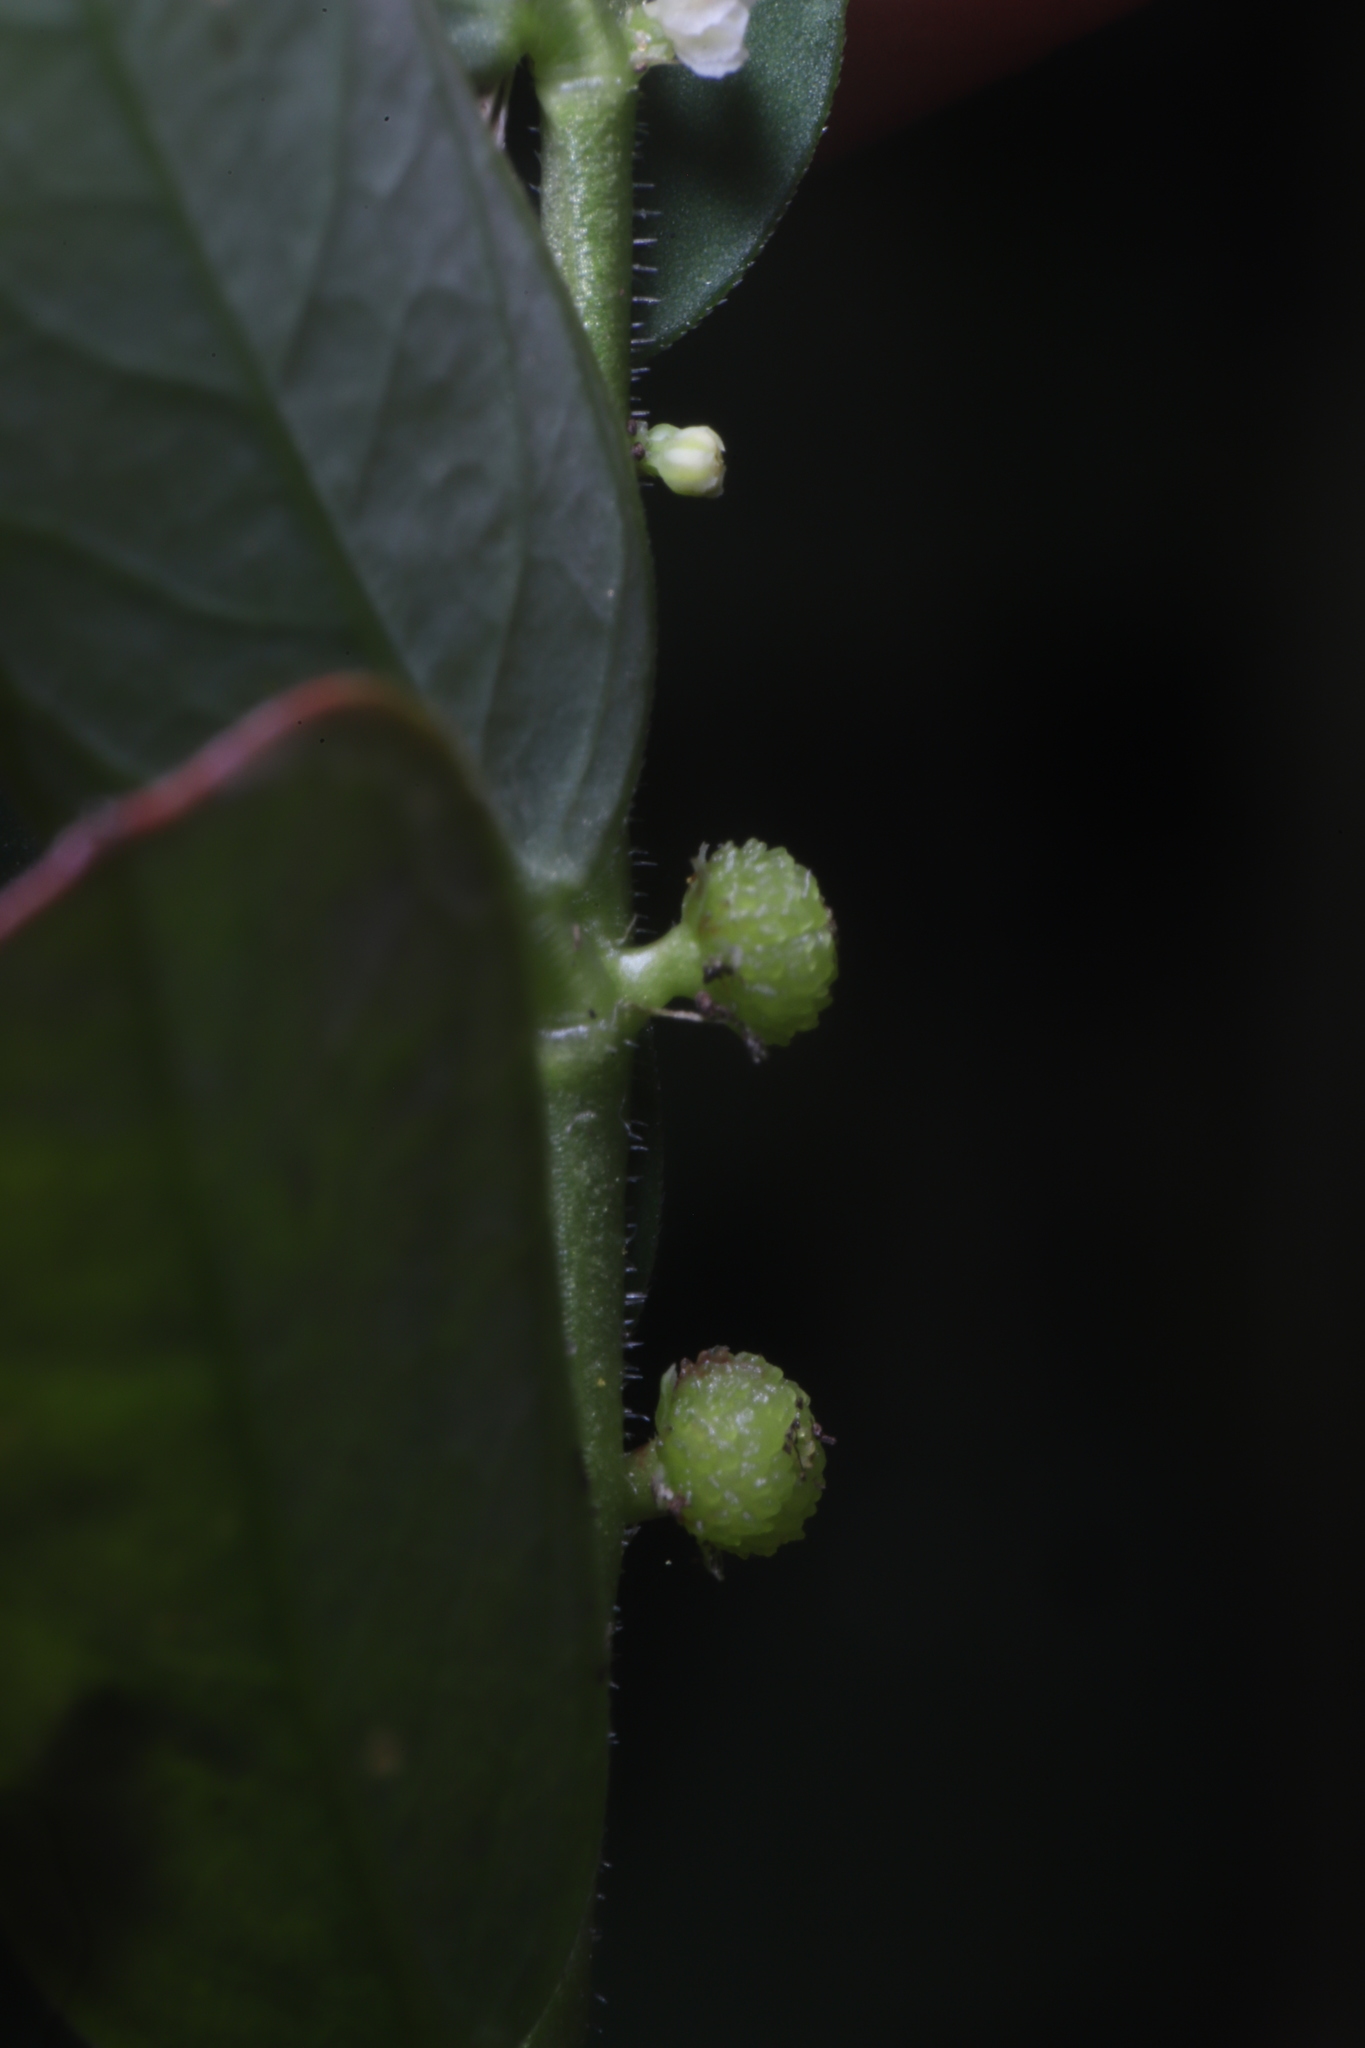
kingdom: Plantae
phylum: Tracheophyta
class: Magnoliopsida
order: Malpighiales
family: Phyllanthaceae
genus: Phyllanthus
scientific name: Phyllanthus urinaria
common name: Chamber bitter
